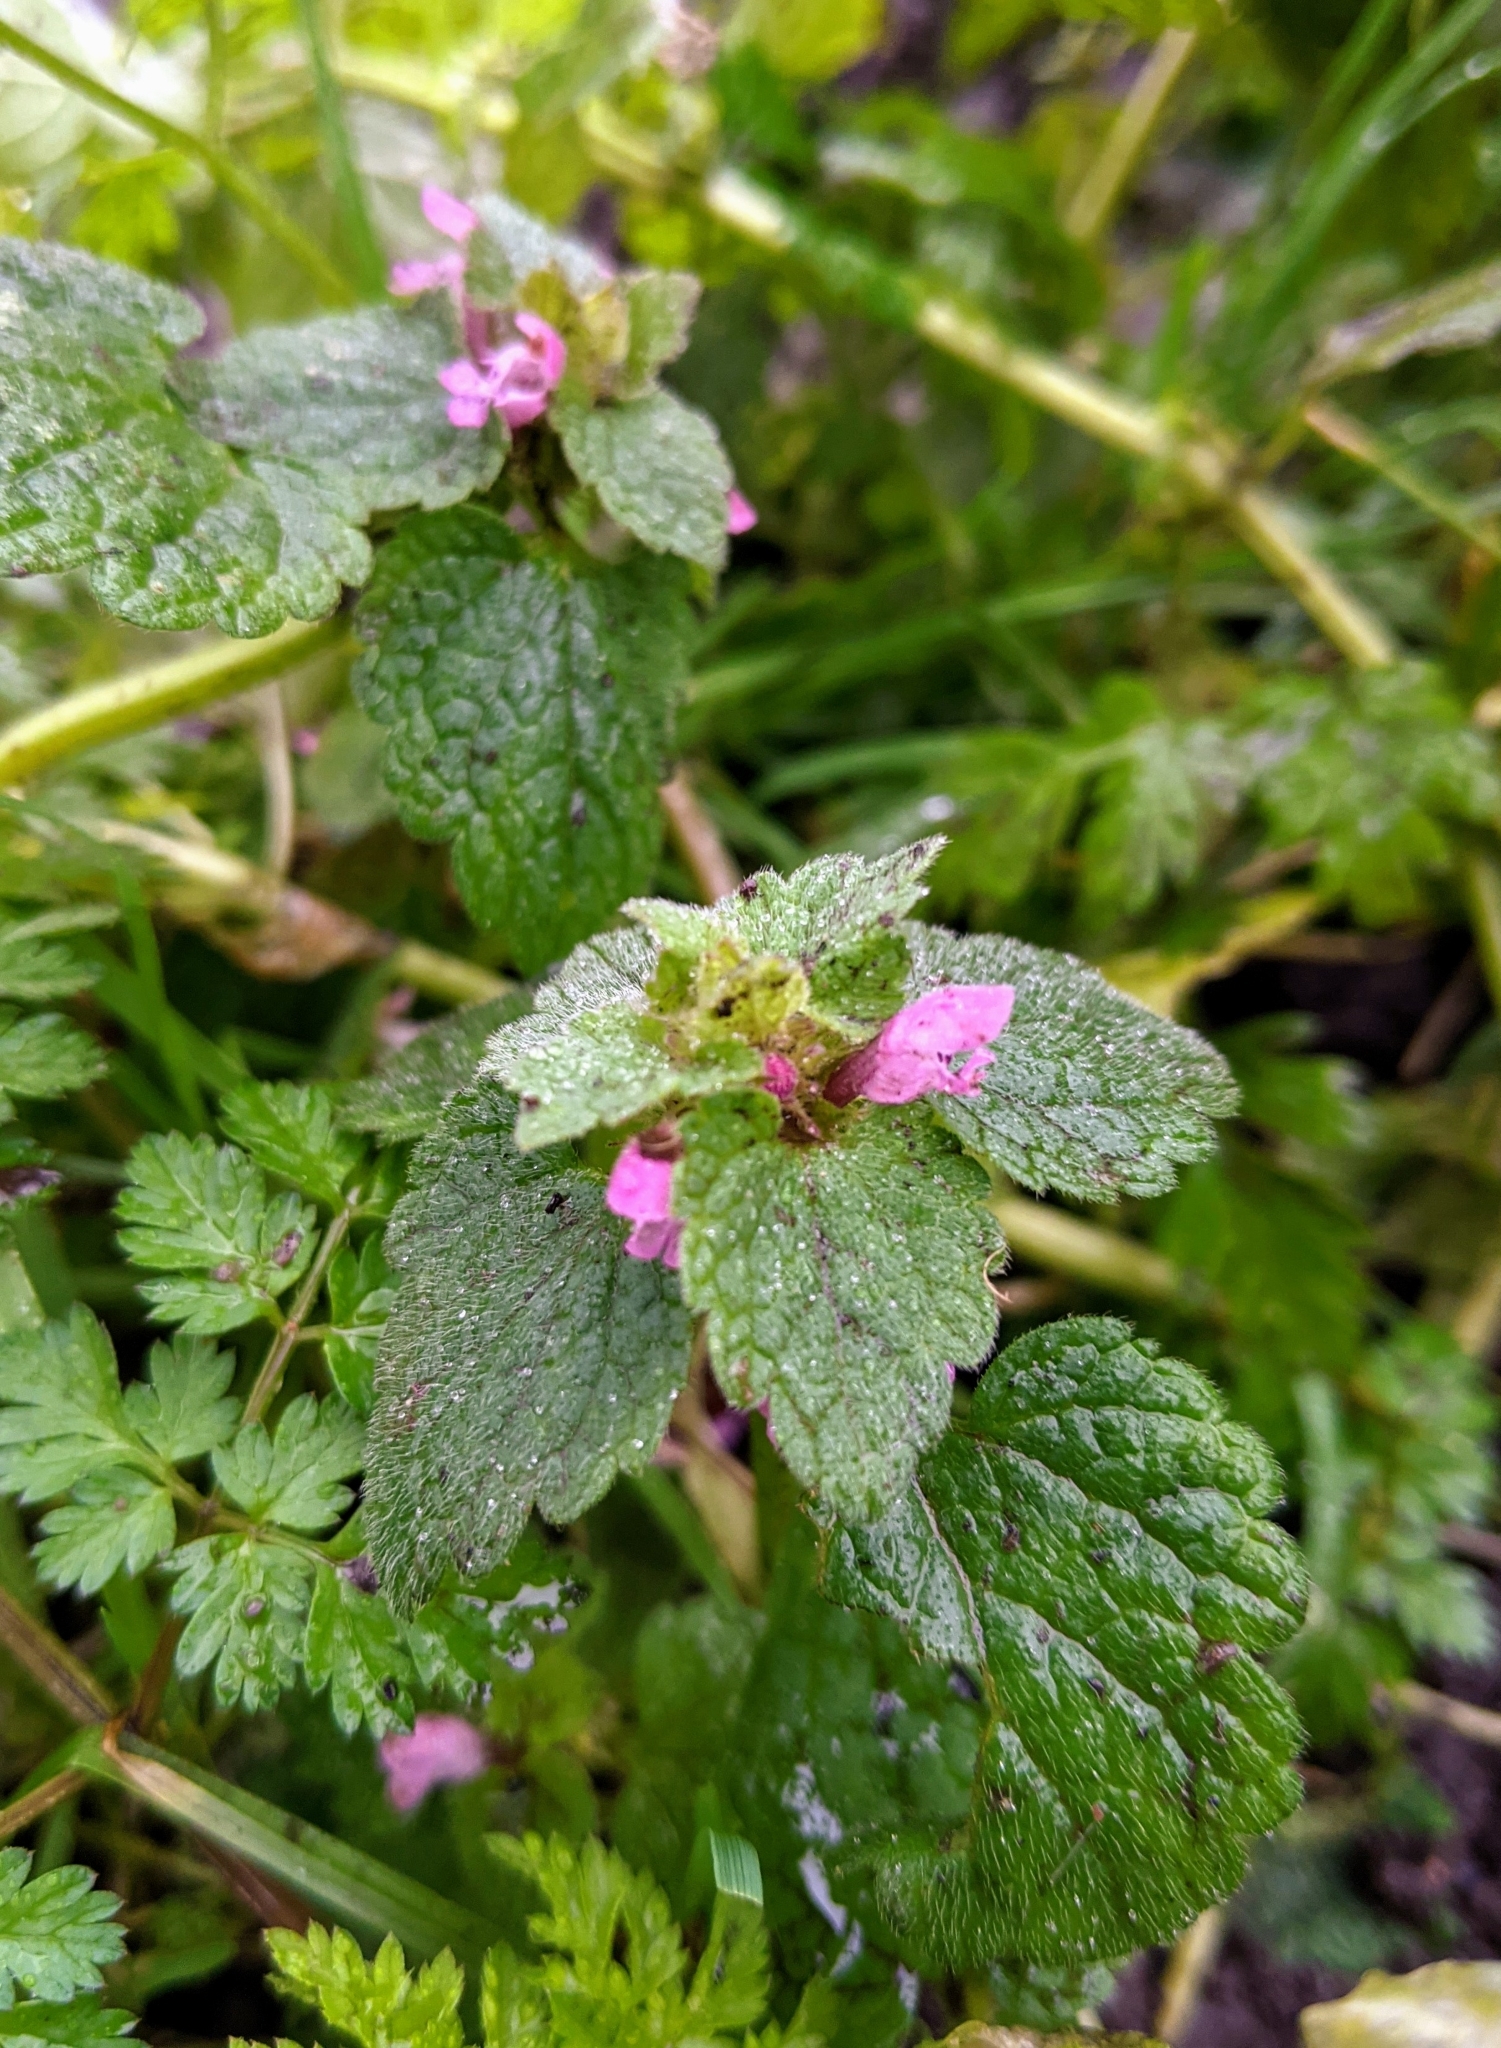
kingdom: Plantae
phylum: Tracheophyta
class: Magnoliopsida
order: Lamiales
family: Lamiaceae
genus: Lamium
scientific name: Lamium purpureum
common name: Red dead-nettle
